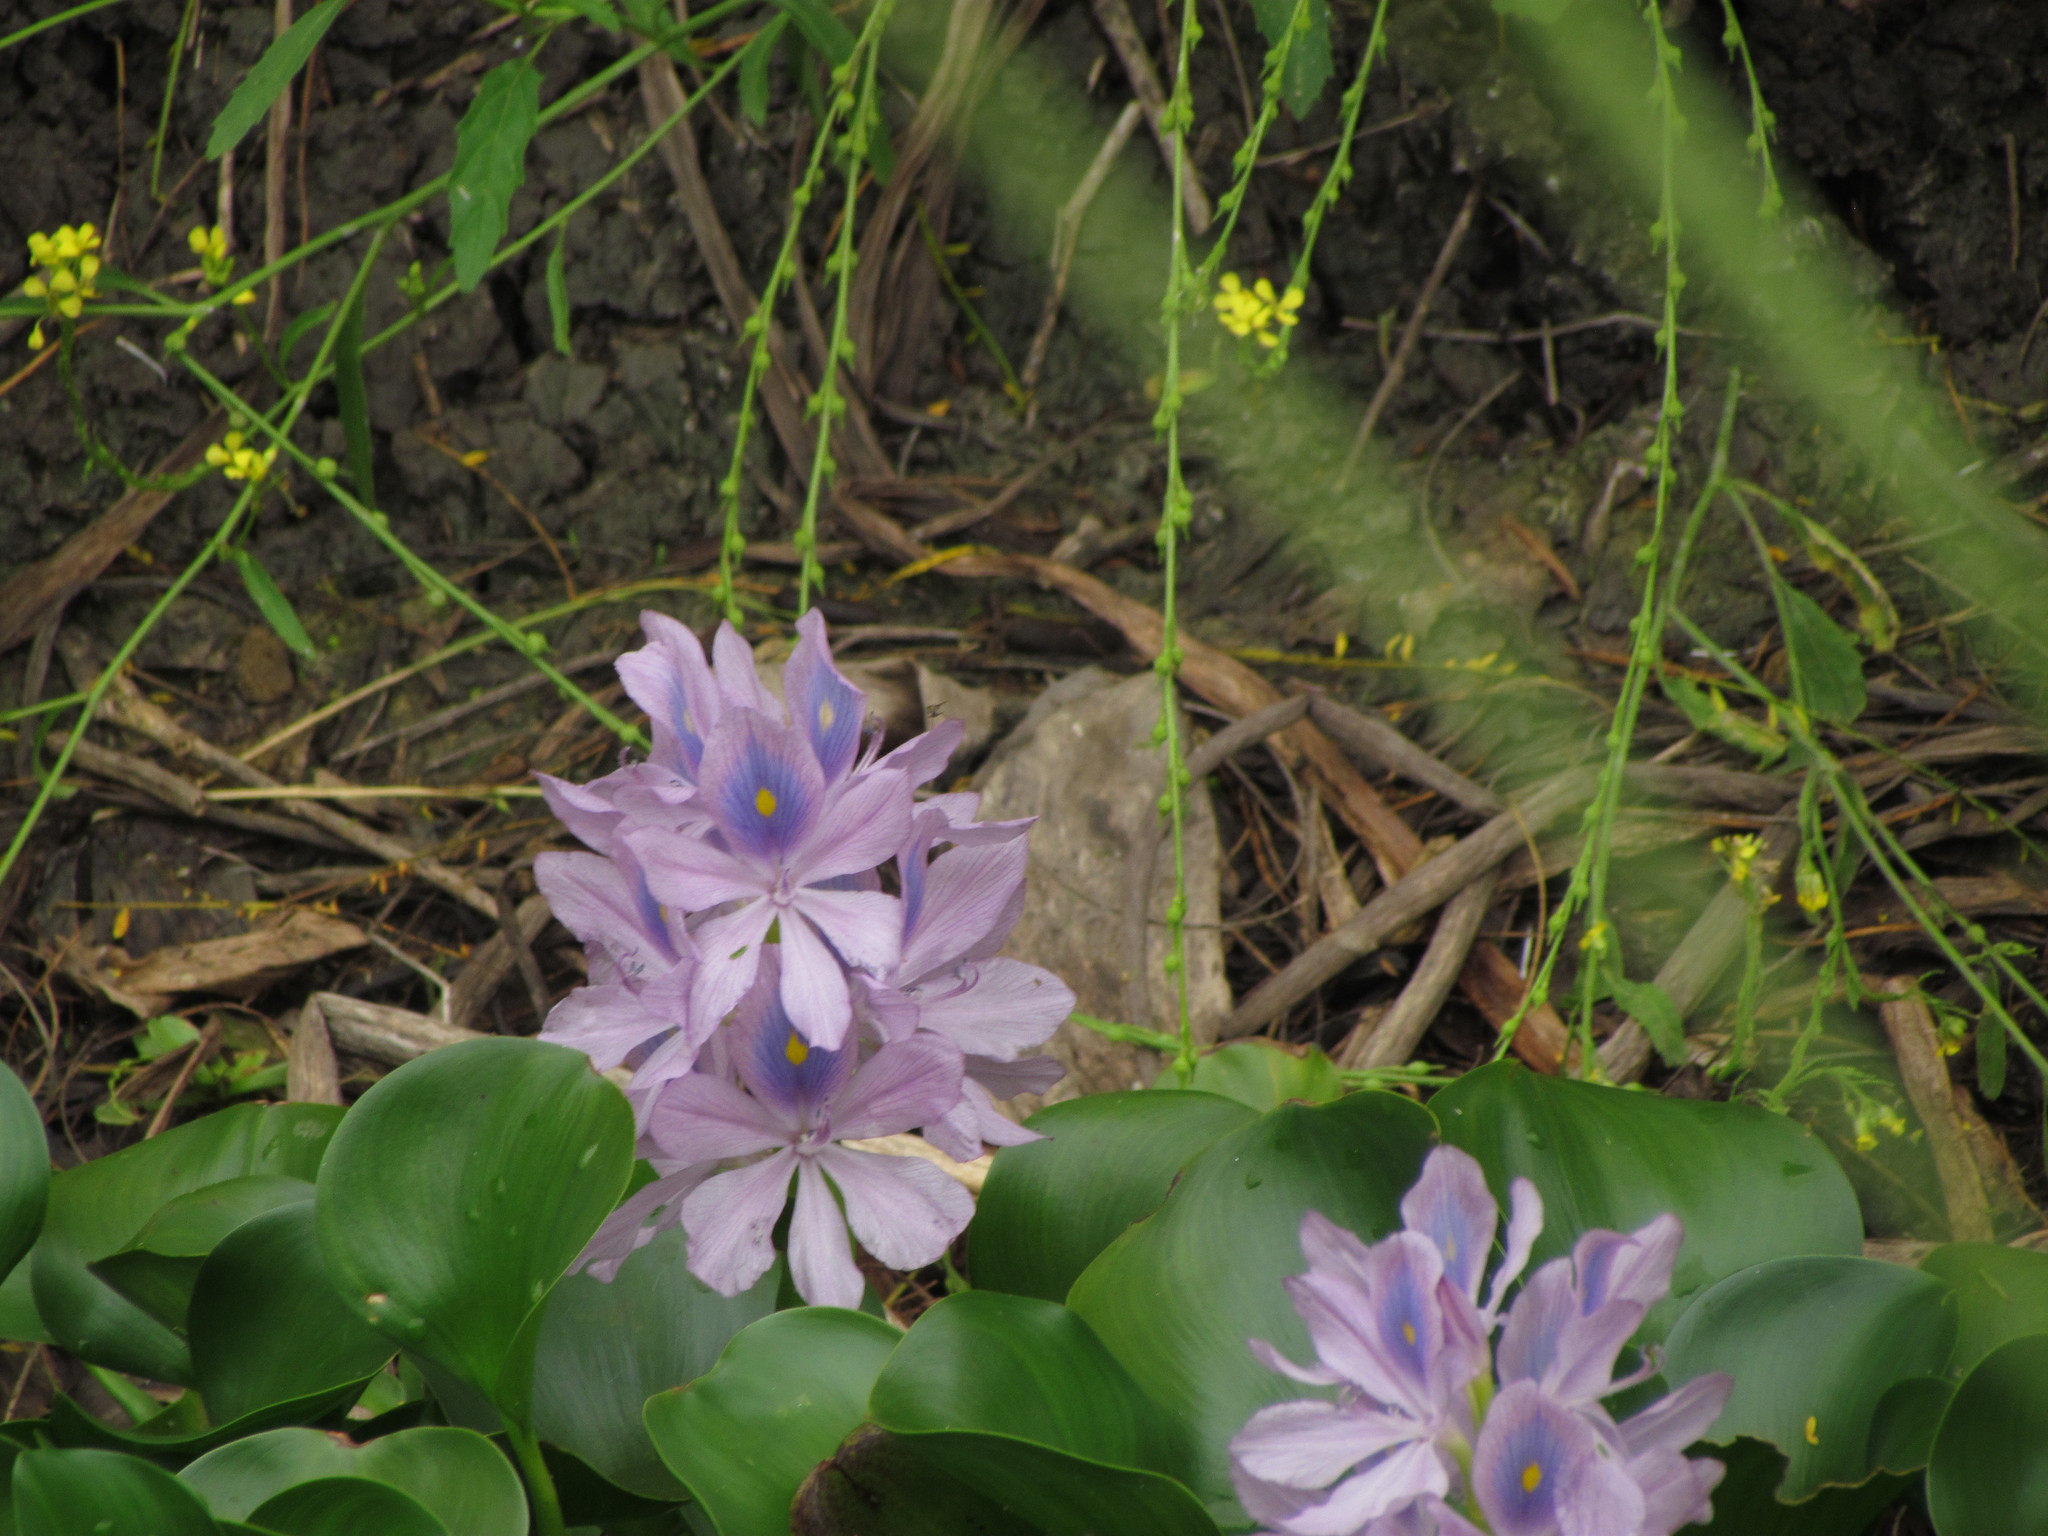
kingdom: Plantae
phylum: Tracheophyta
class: Liliopsida
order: Commelinales
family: Pontederiaceae
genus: Pontederia
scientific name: Pontederia crassipes
